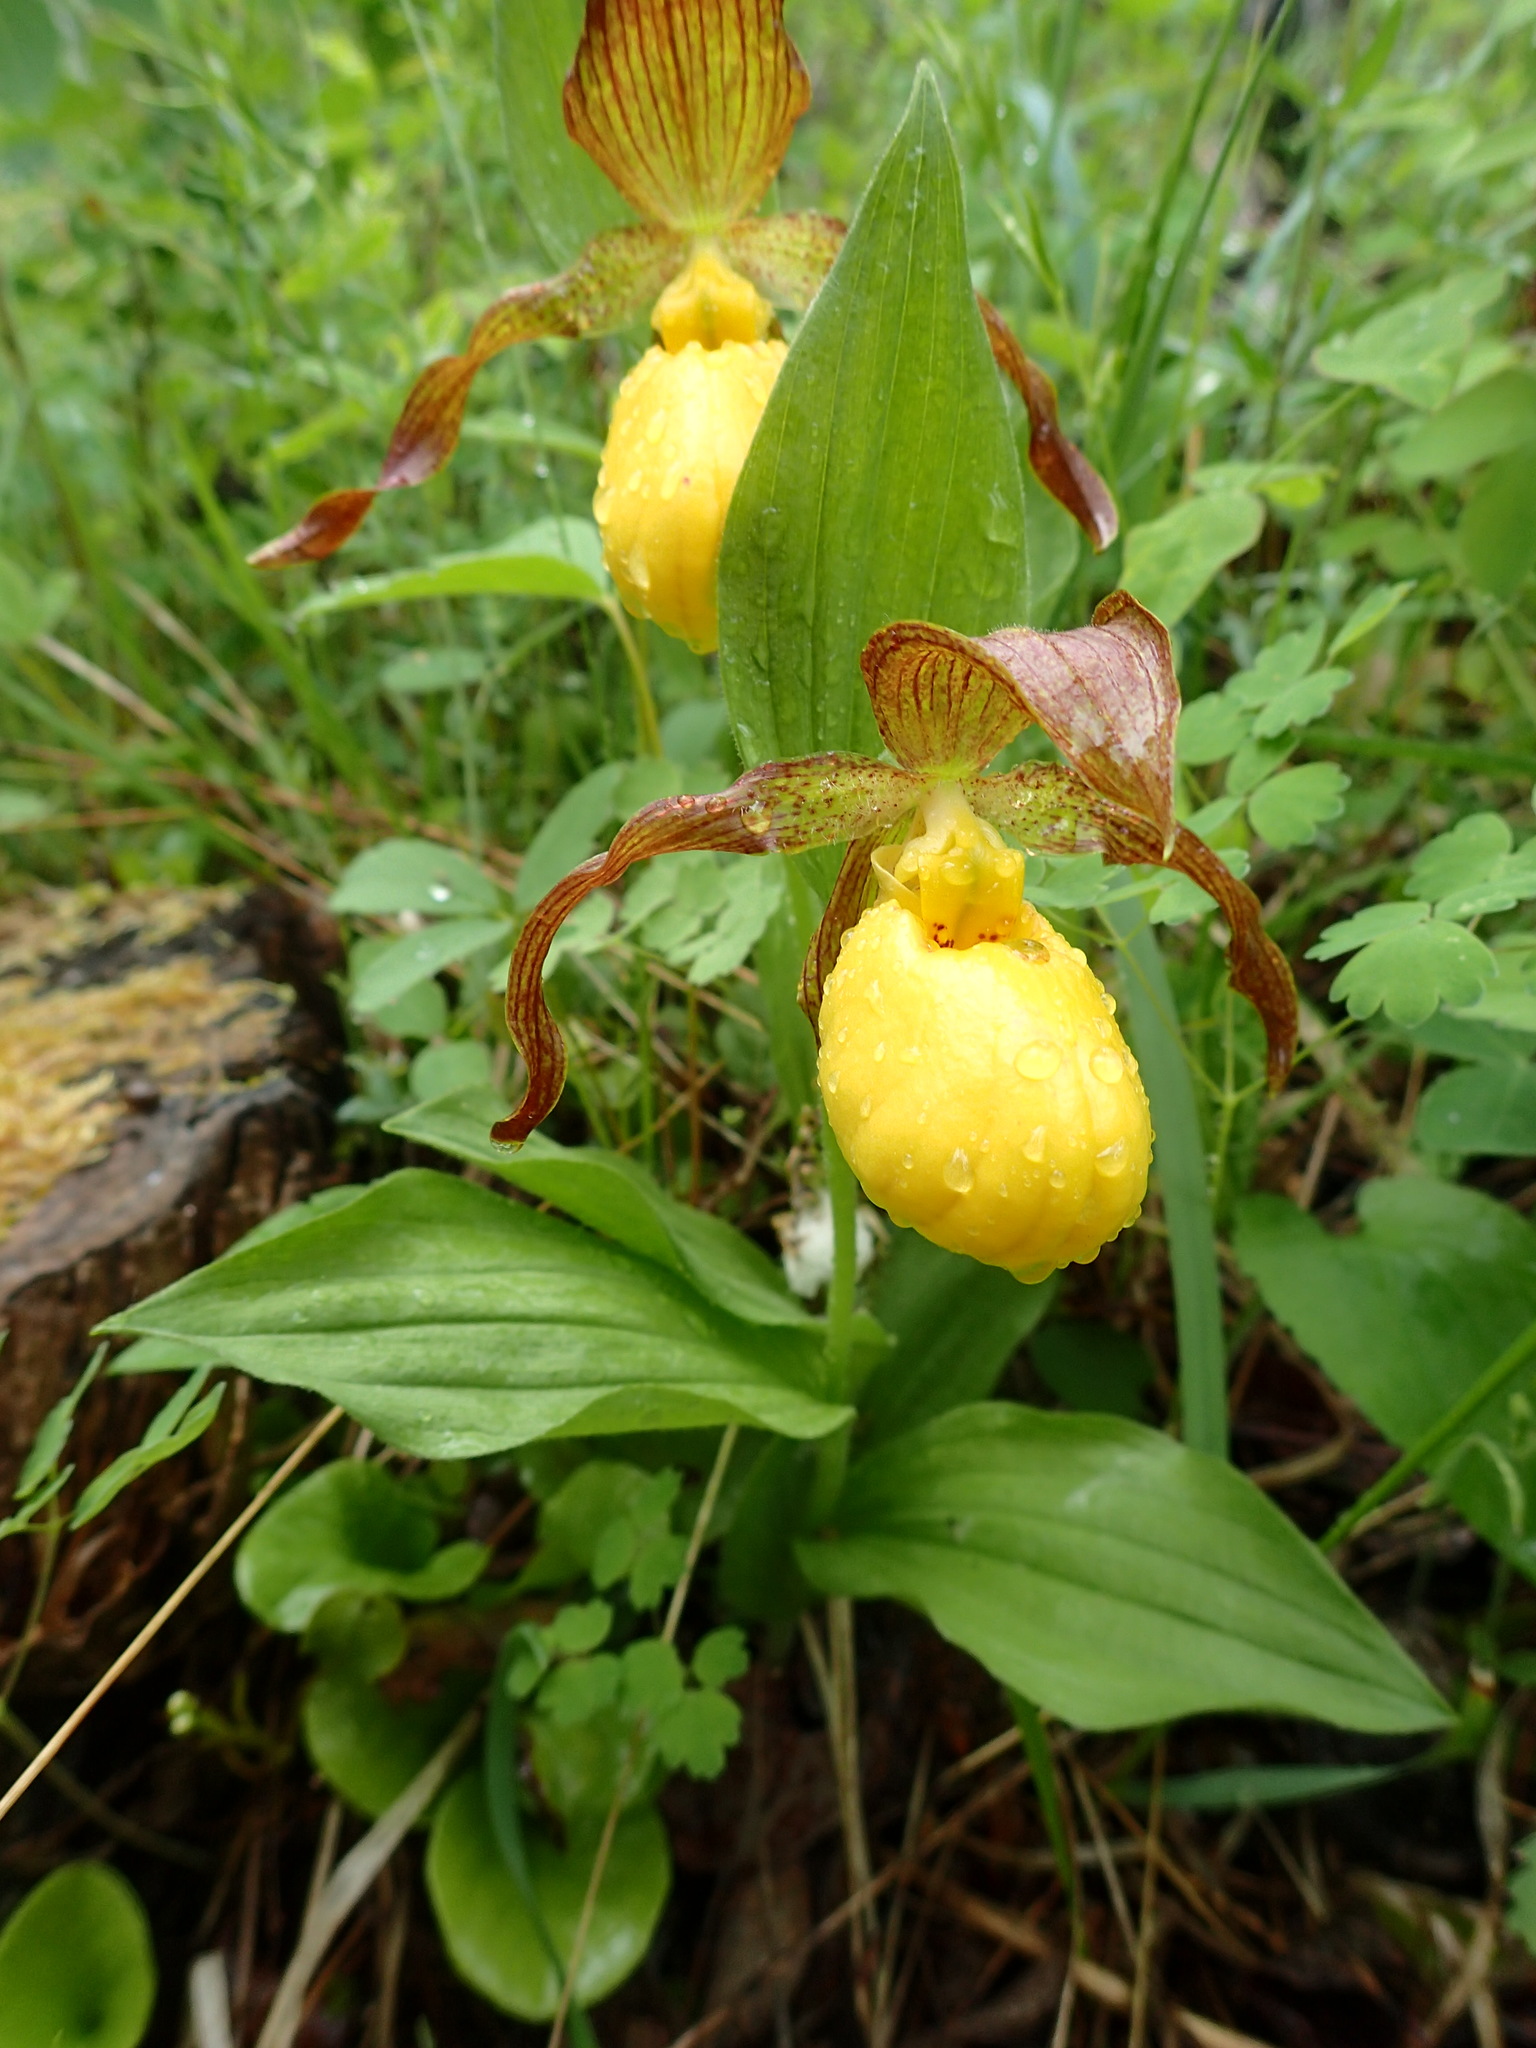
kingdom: Plantae
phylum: Tracheophyta
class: Liliopsida
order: Asparagales
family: Orchidaceae
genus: Cypripedium
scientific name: Cypripedium parviflorum
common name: American yellow lady's-slipper
